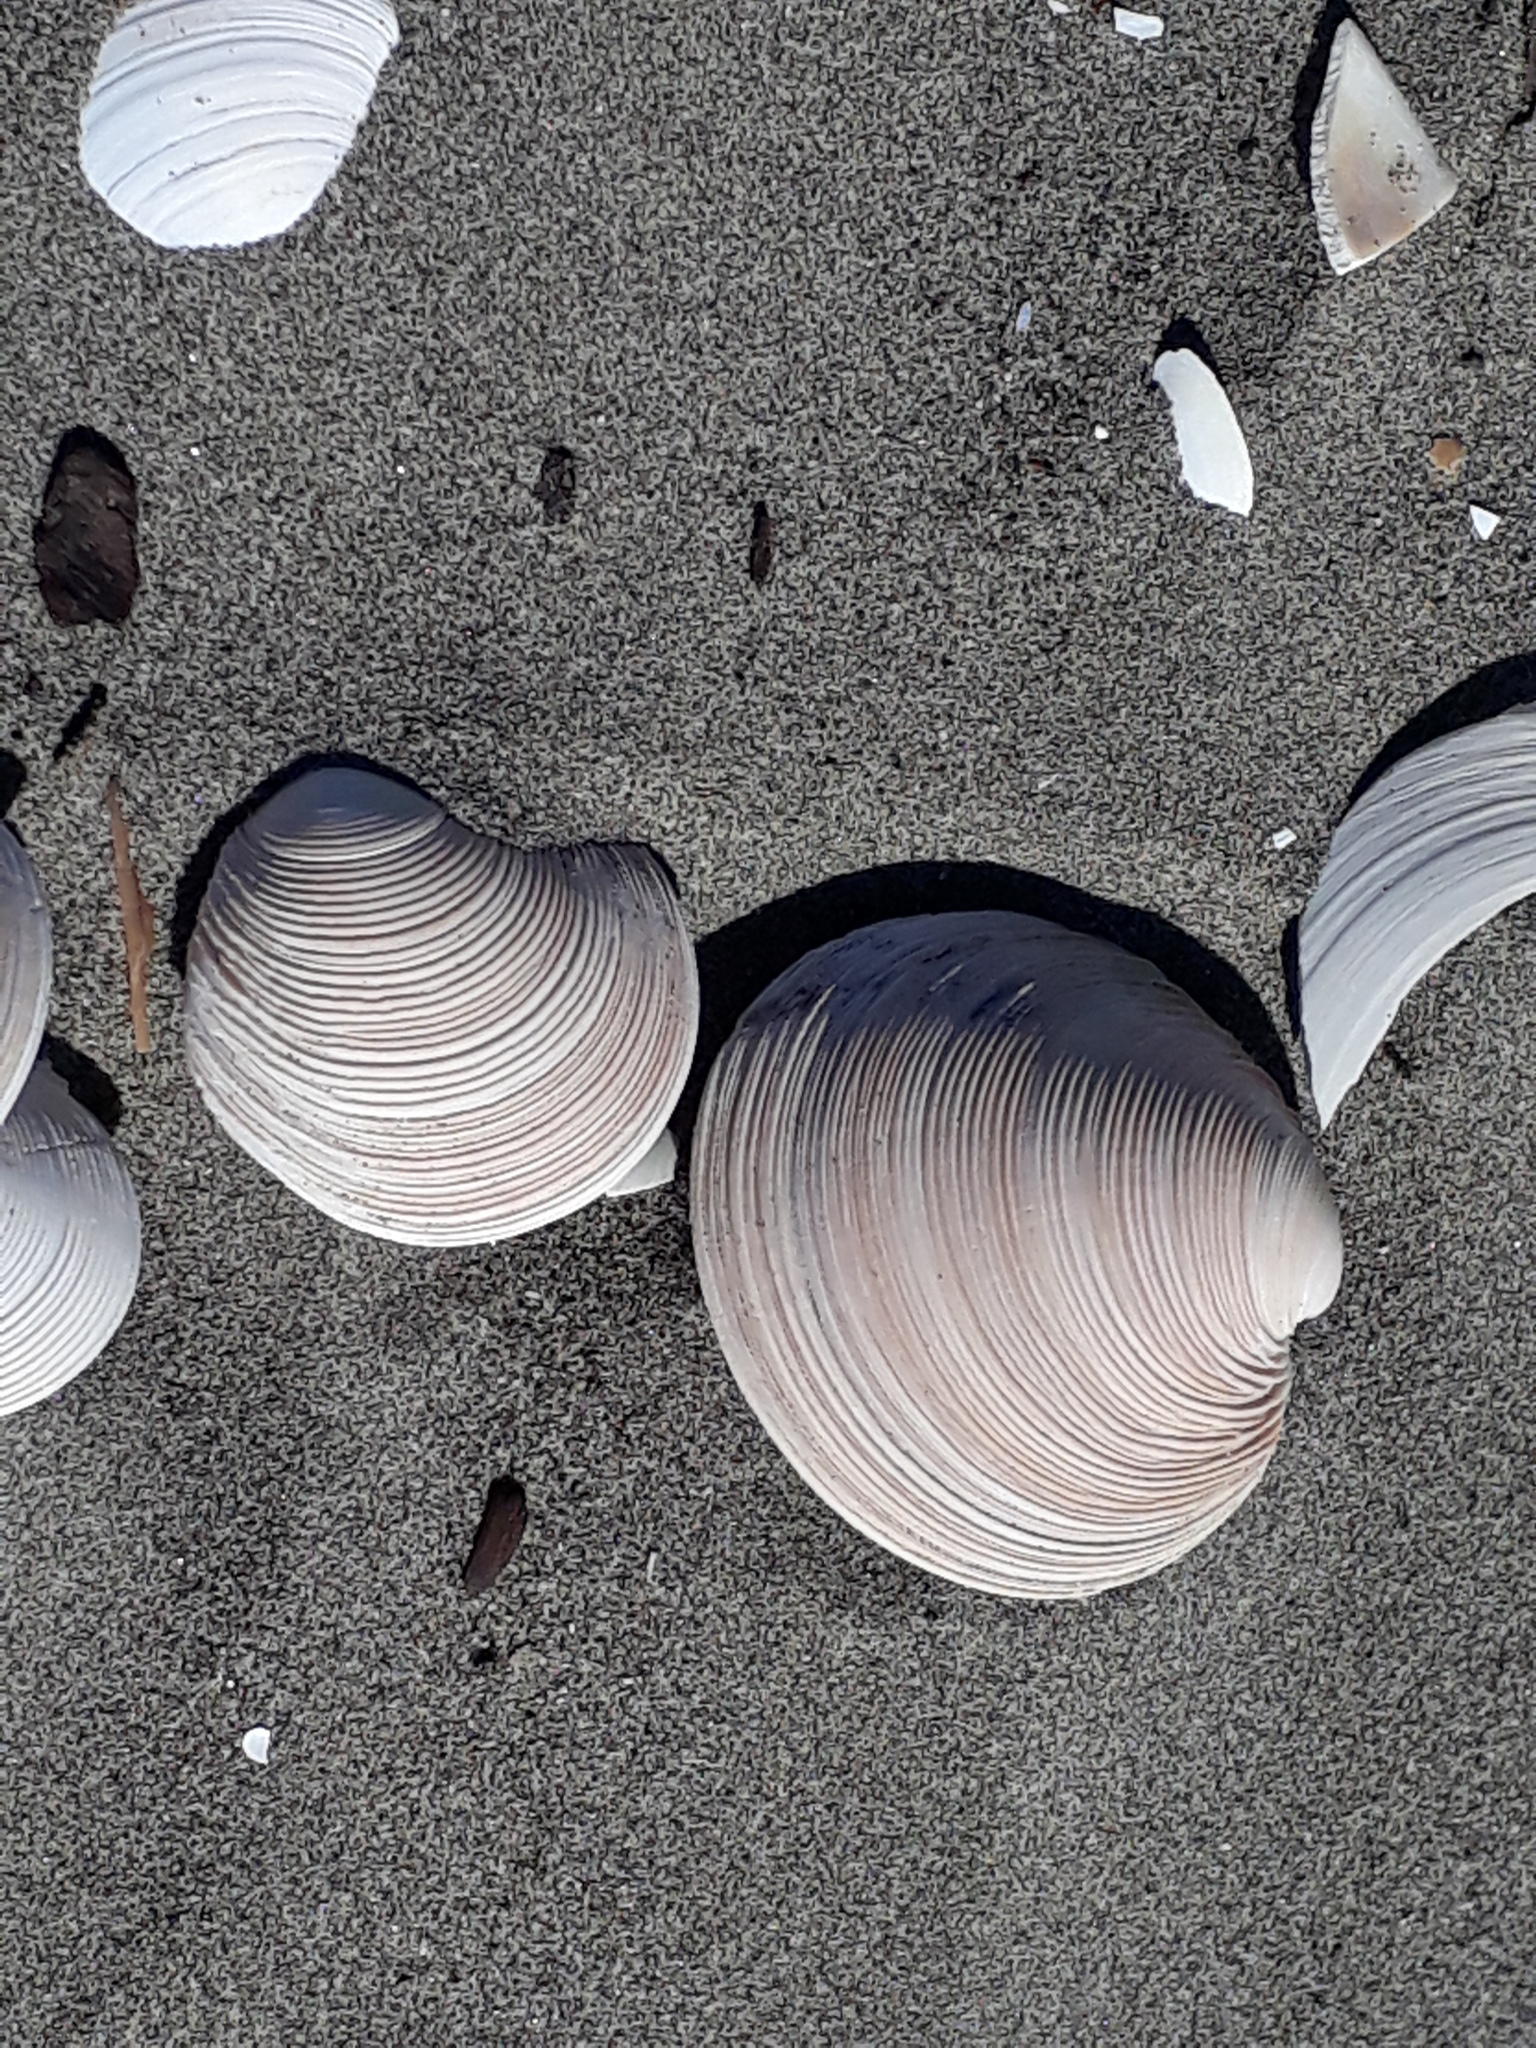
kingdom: Animalia
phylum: Mollusca
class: Bivalvia
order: Venerida
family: Veneridae
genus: Dosinia
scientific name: Dosinia anus
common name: Old-woman dosinia
